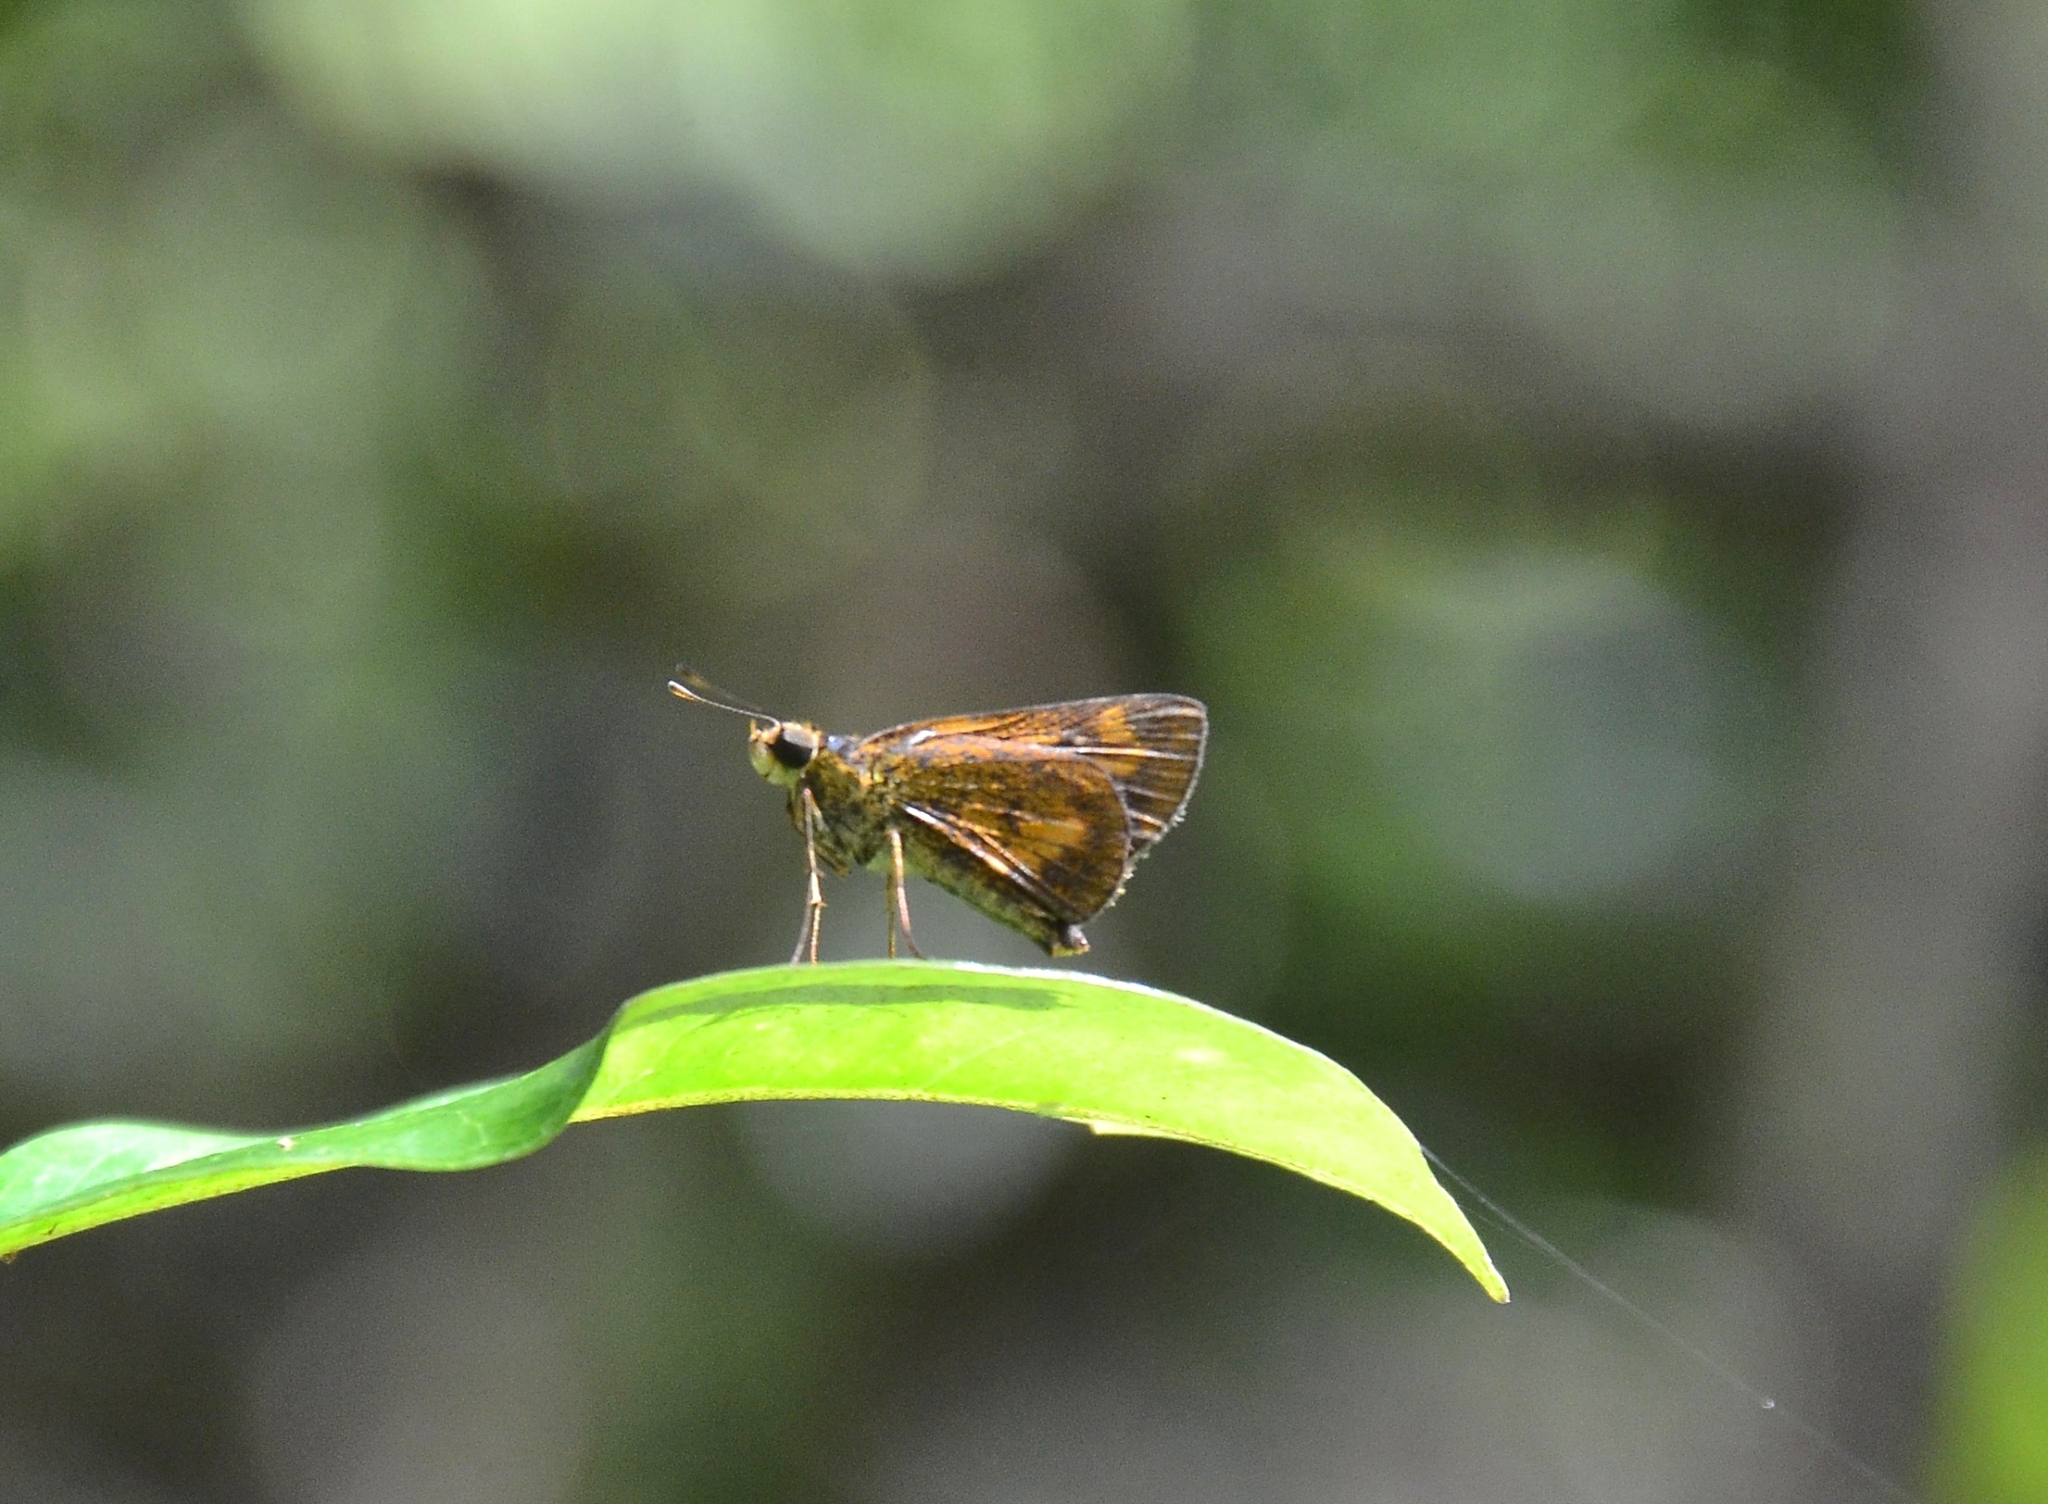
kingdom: Animalia
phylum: Arthropoda
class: Insecta
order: Lepidoptera
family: Hesperiidae
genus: Oriens
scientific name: Oriens goloides
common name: Smaller dartlet
